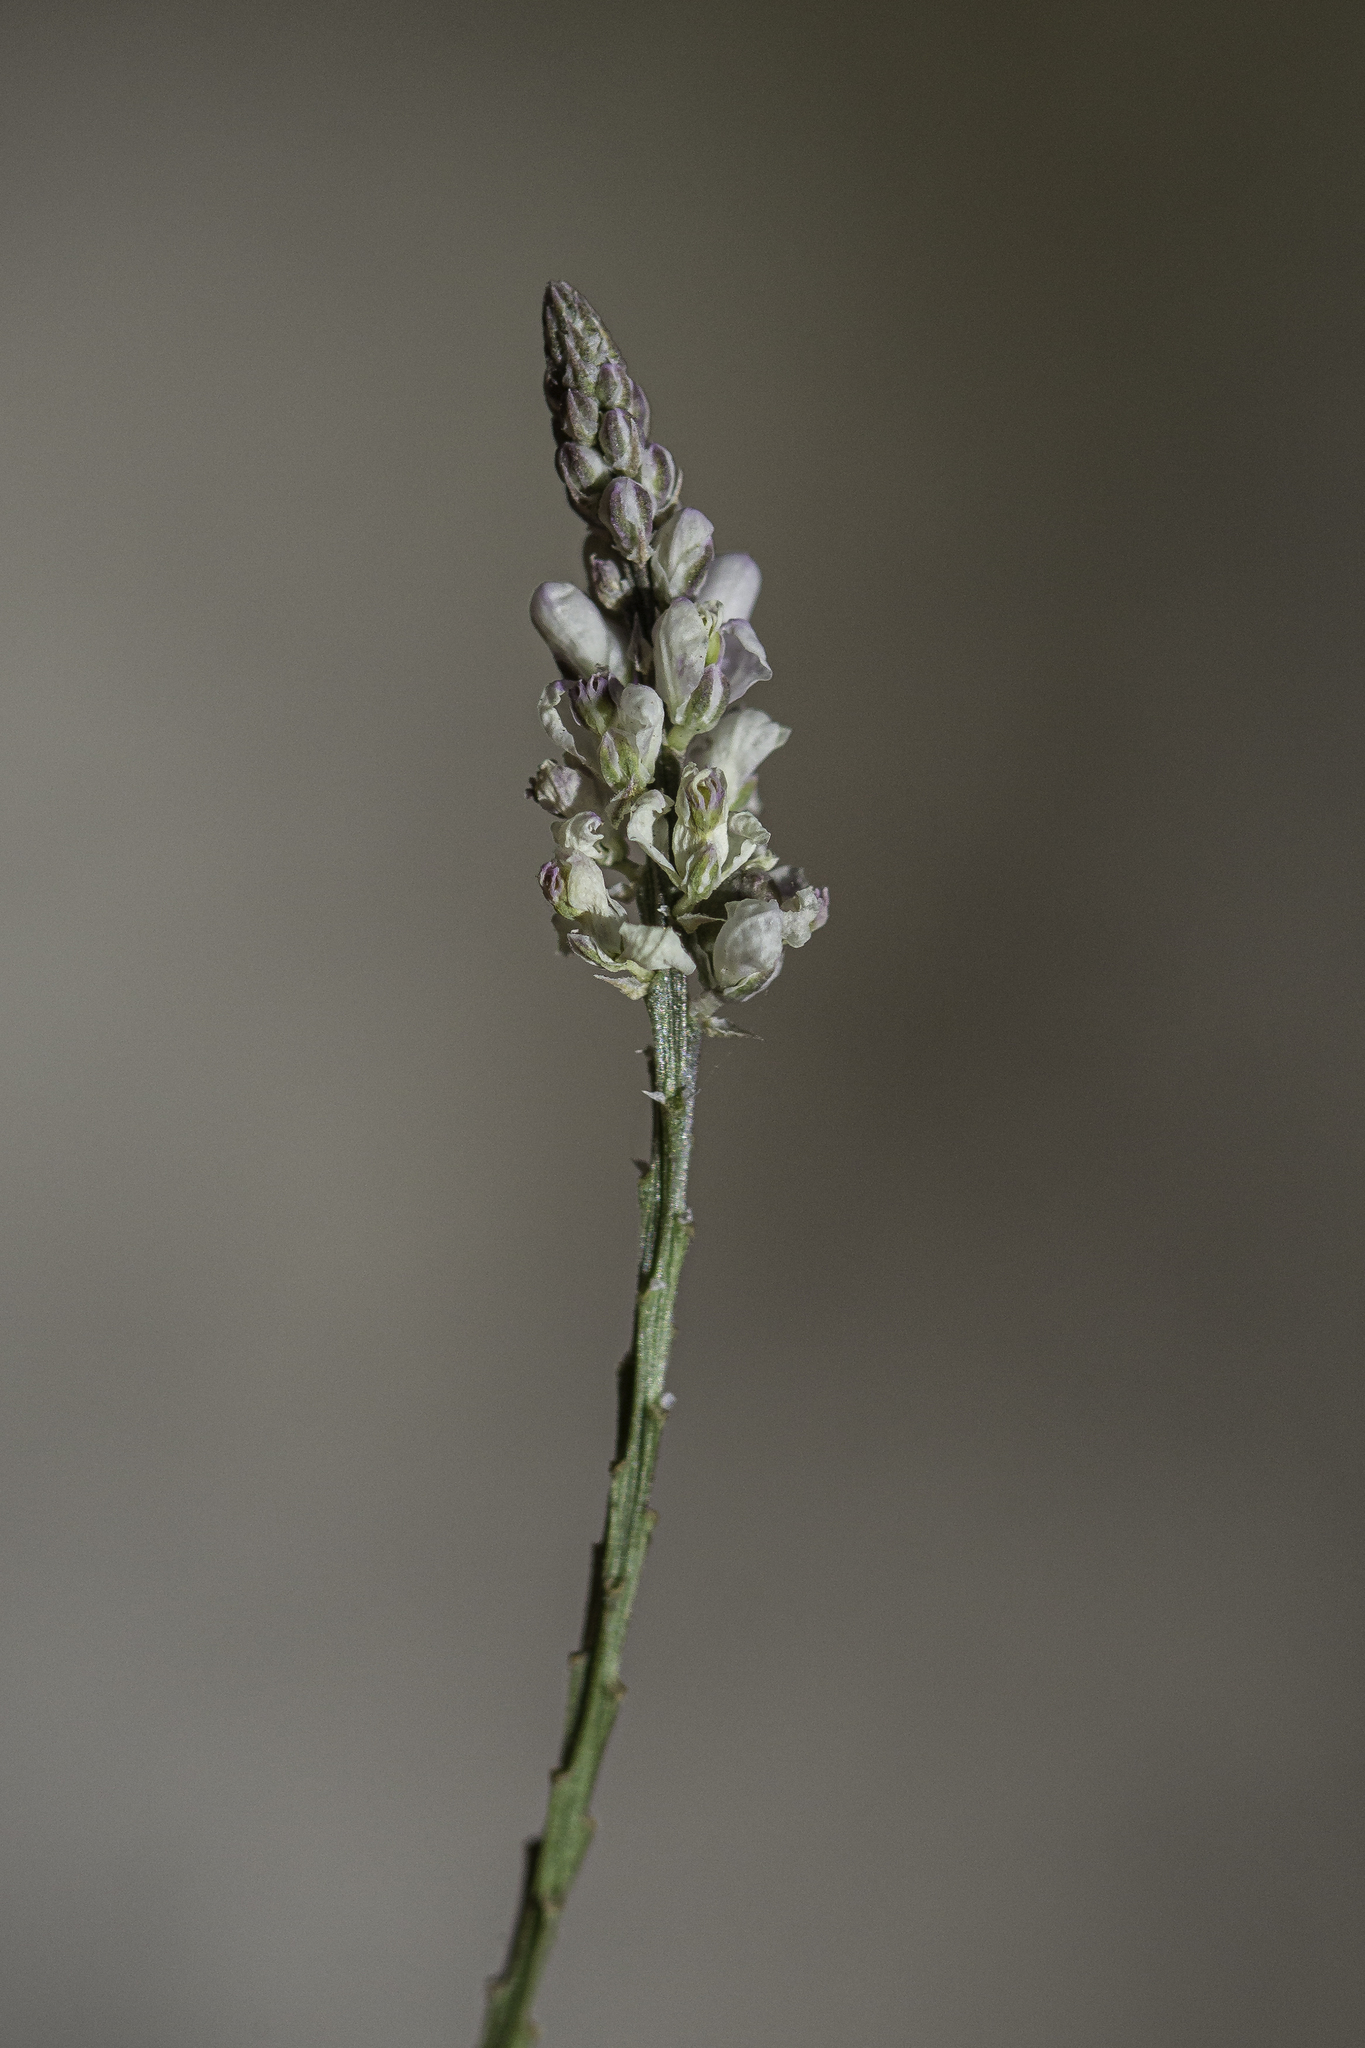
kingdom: Plantae
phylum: Tracheophyta
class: Magnoliopsida
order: Fabales
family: Polygalaceae
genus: Polygala
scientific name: Polygala alba
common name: White milkwort
